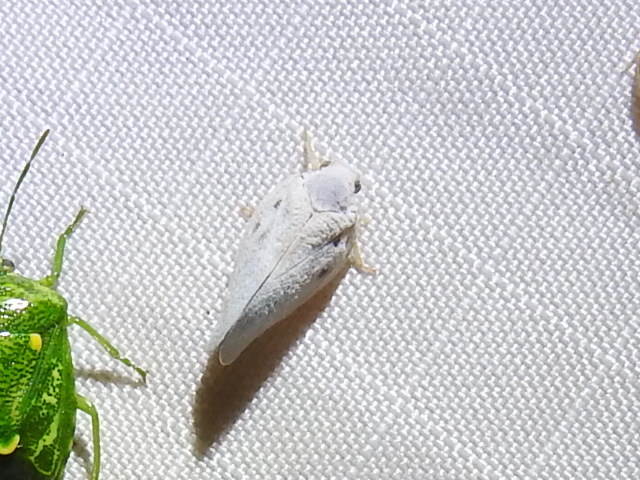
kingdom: Animalia
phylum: Arthropoda
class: Insecta
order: Hemiptera
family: Flatidae
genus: Metcalfa
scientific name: Metcalfa pruinosa
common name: Citrus flatid planthopper
